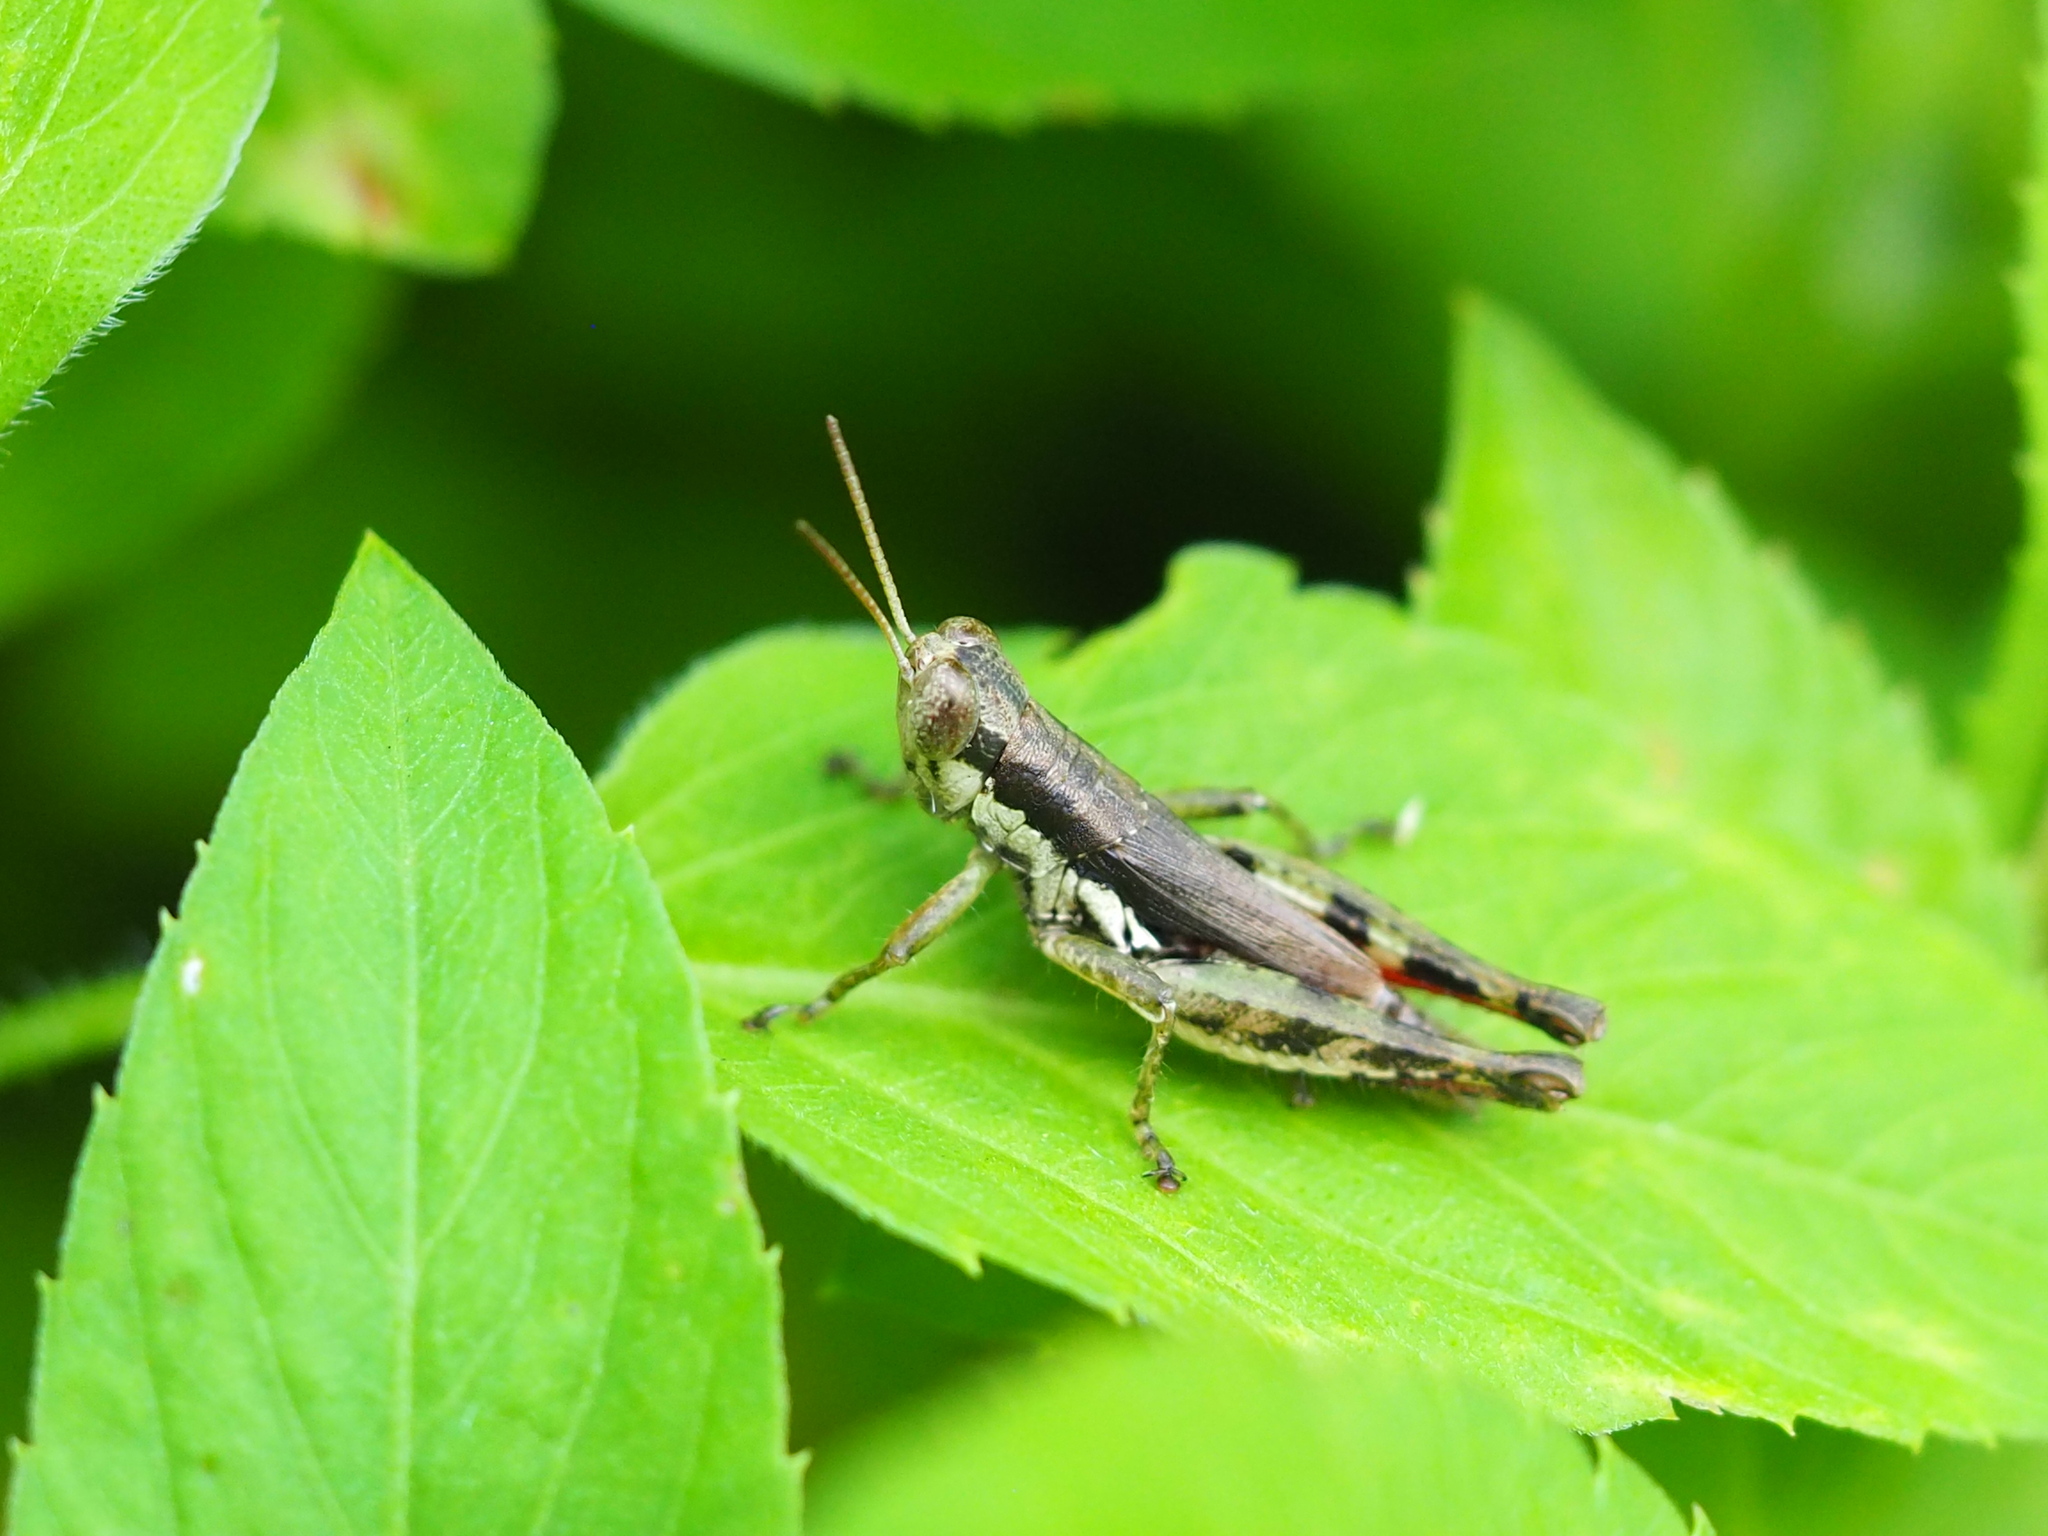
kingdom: Animalia
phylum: Arthropoda
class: Insecta
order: Orthoptera
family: Acrididae
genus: Pseudoxya
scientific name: Pseudoxya diminuta
